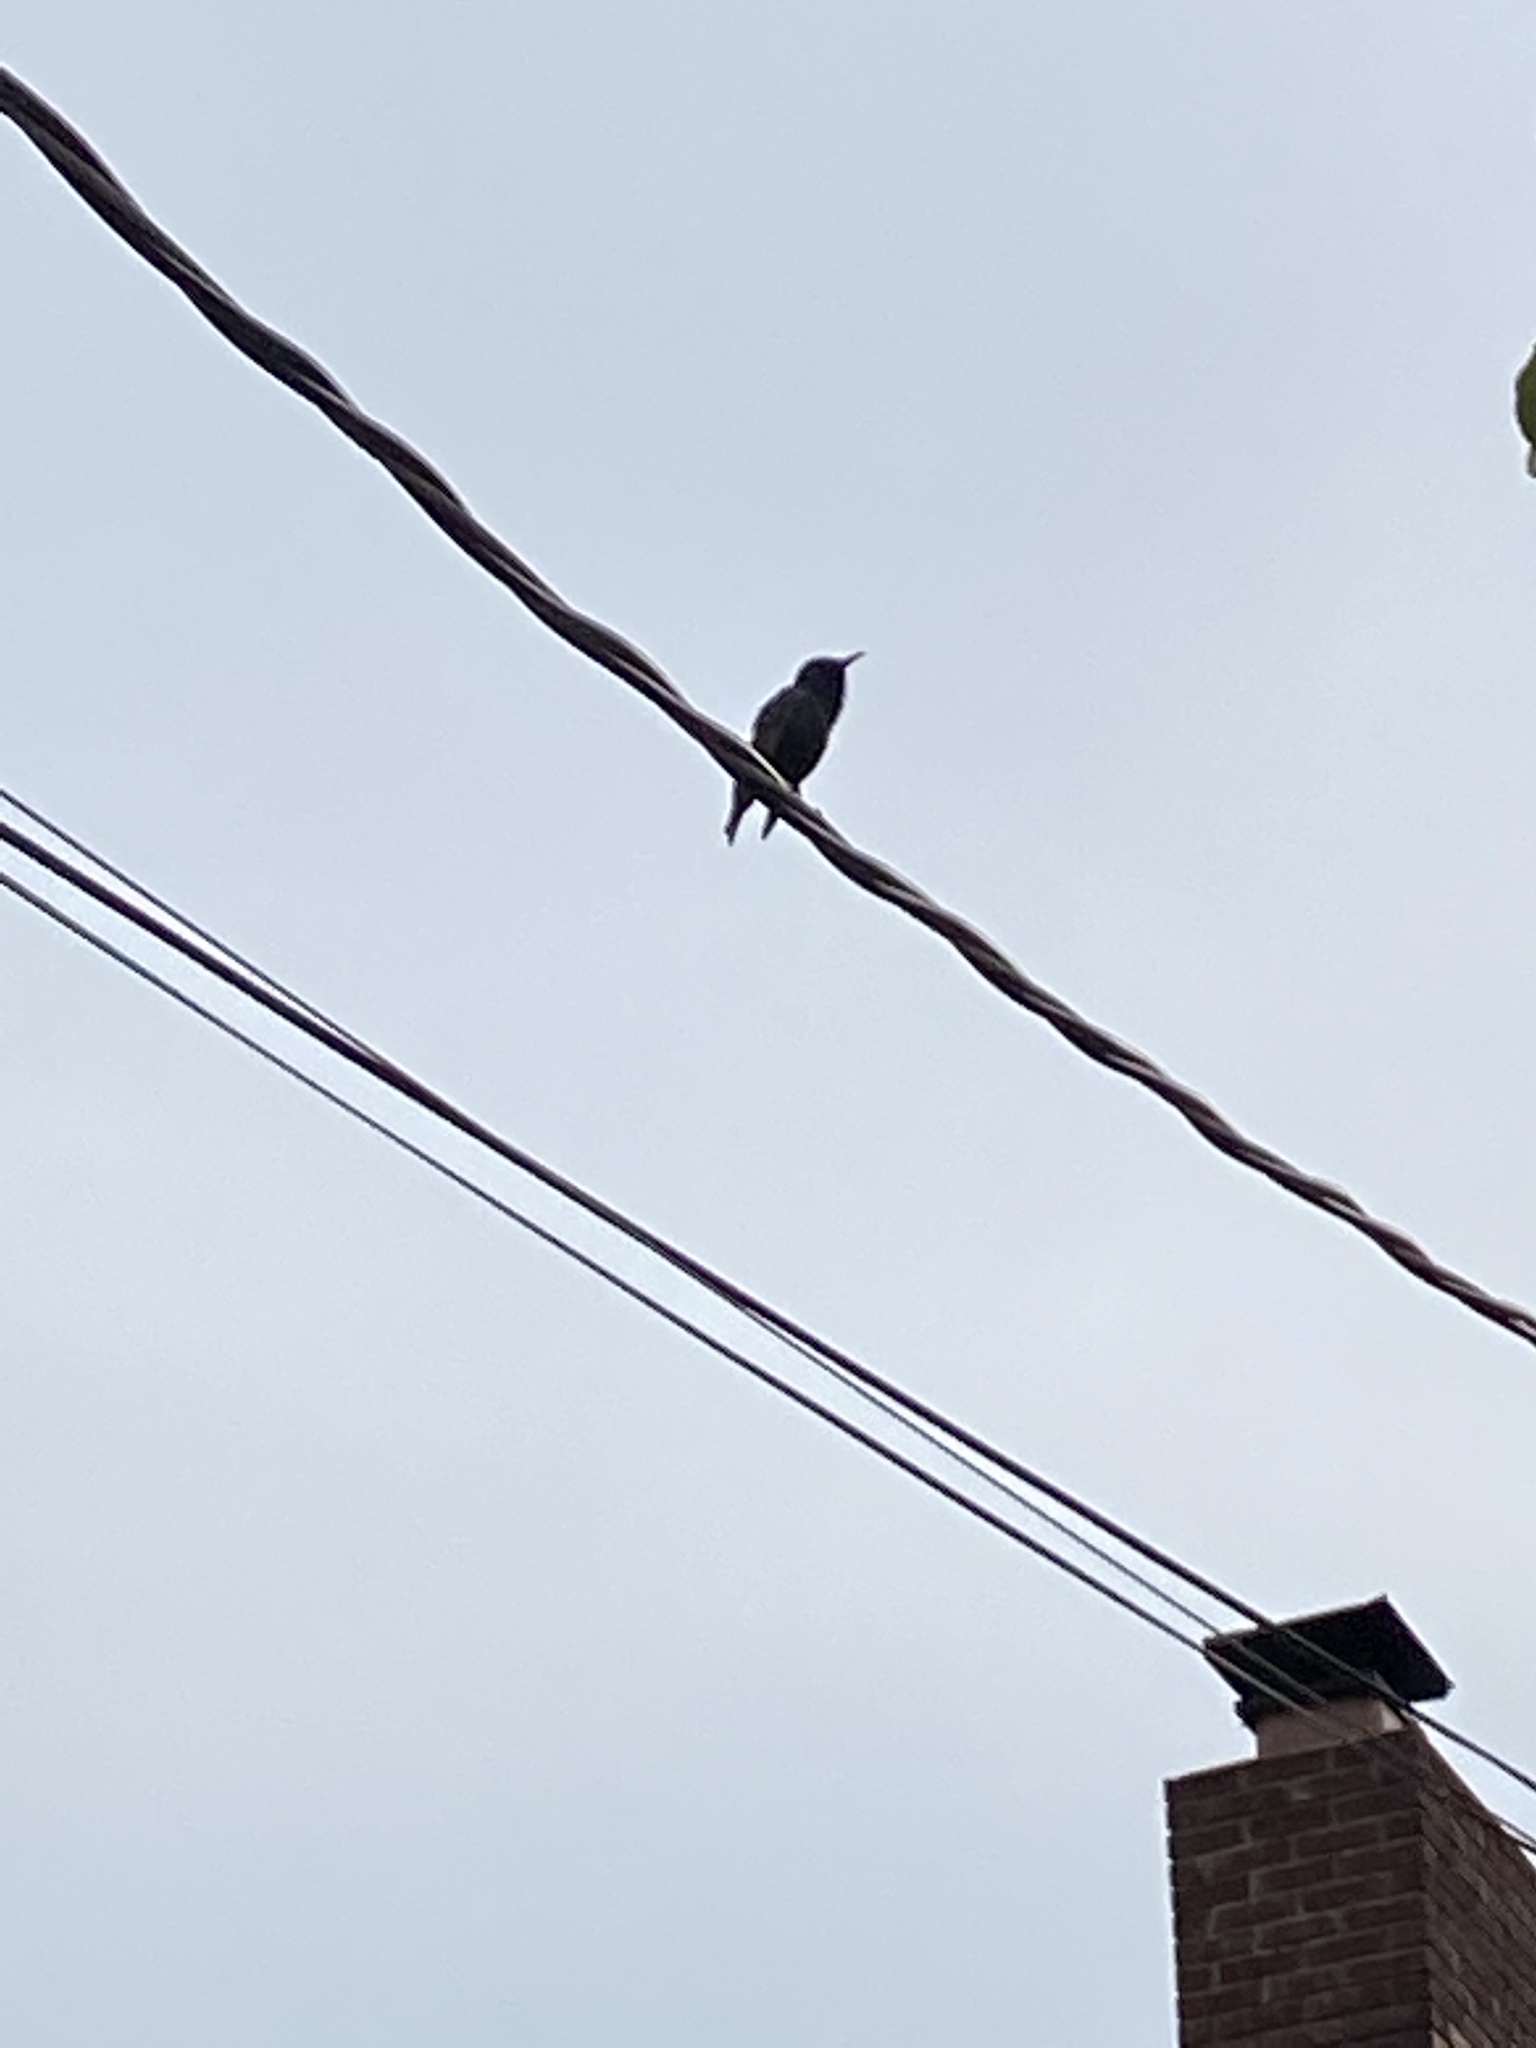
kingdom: Animalia
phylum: Chordata
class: Aves
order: Passeriformes
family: Sturnidae
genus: Sturnus
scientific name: Sturnus vulgaris
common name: Common starling
